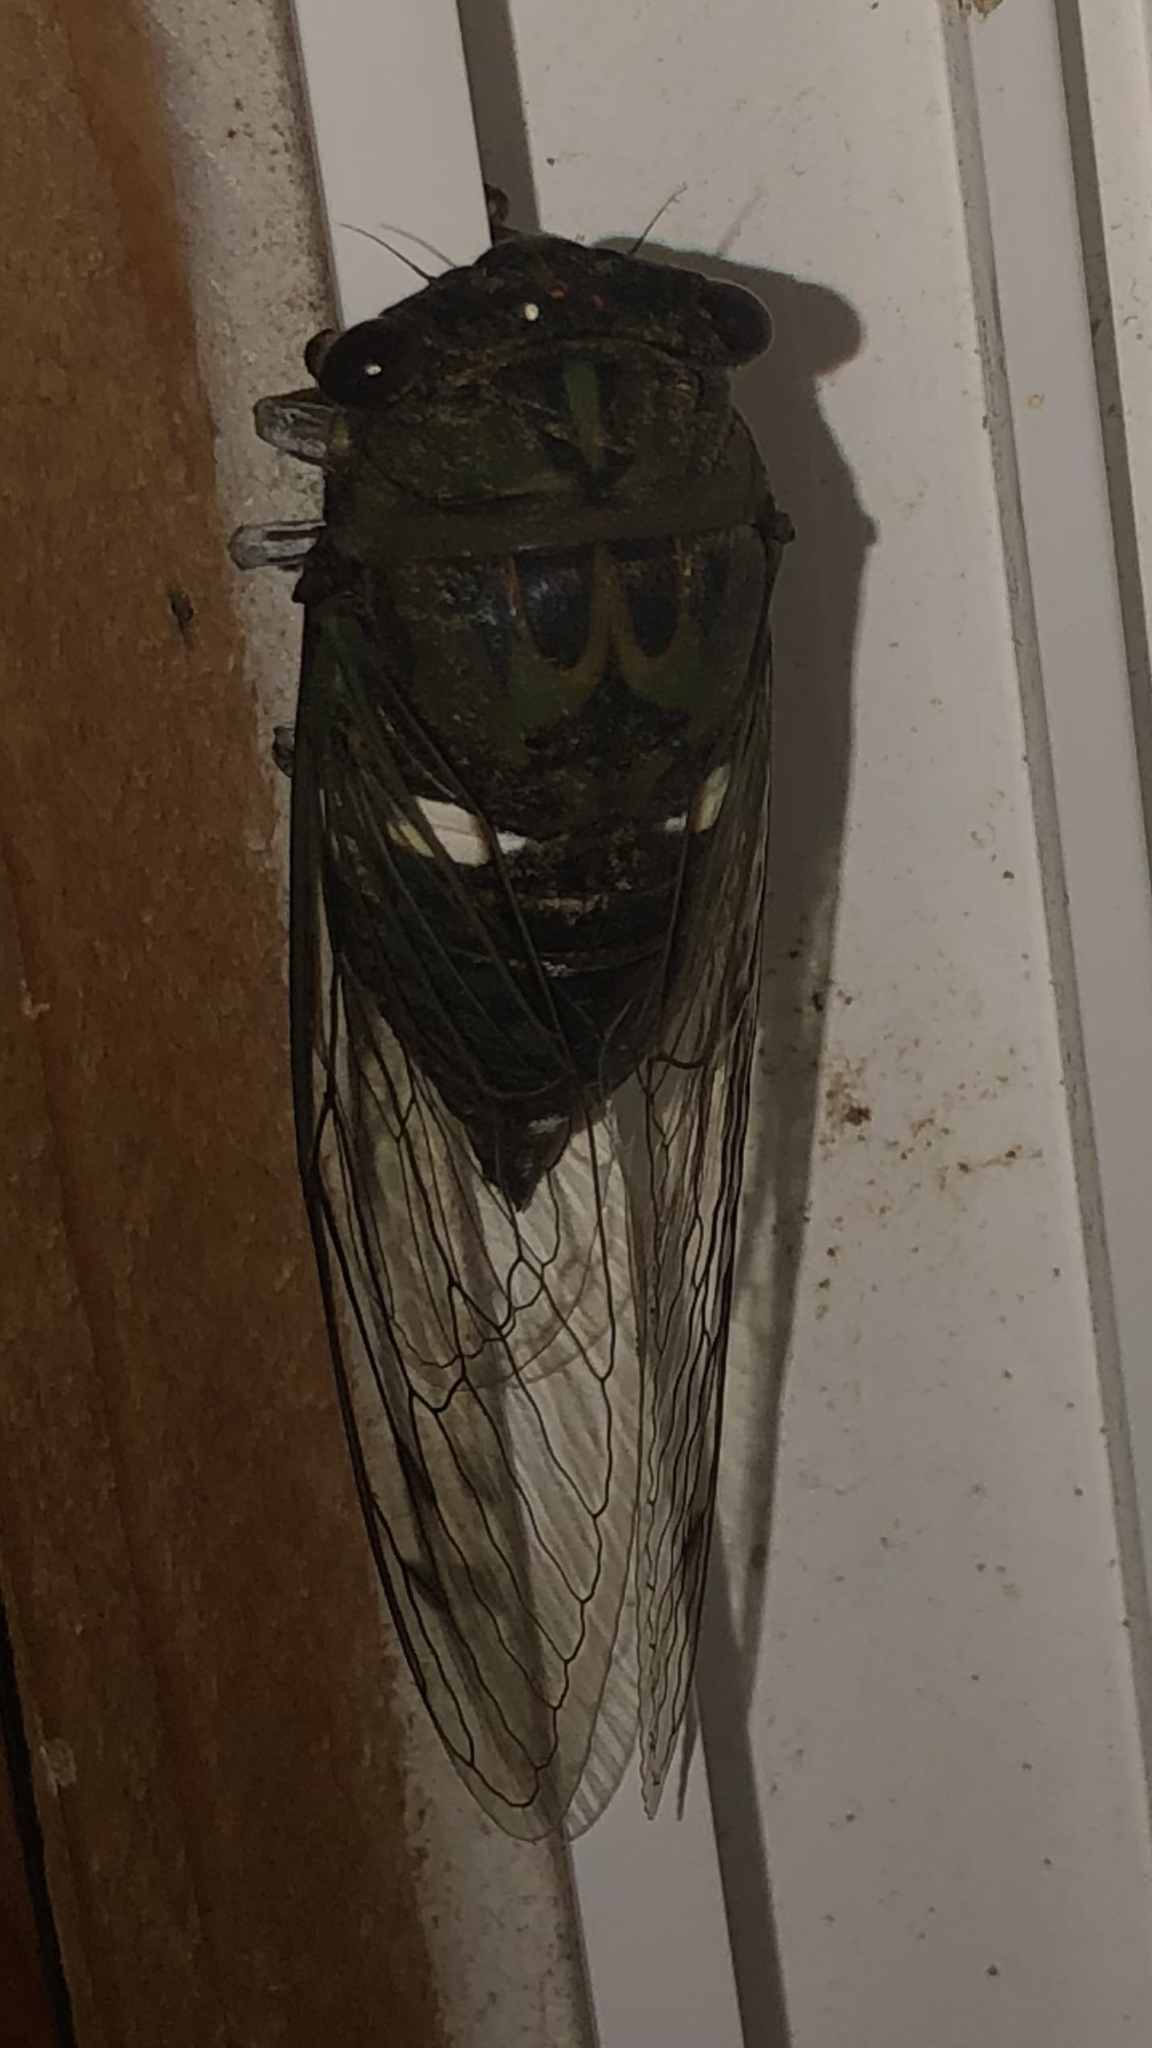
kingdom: Animalia
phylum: Arthropoda
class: Insecta
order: Hemiptera
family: Cicadidae
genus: Neotibicen
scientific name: Neotibicen pruinosus
